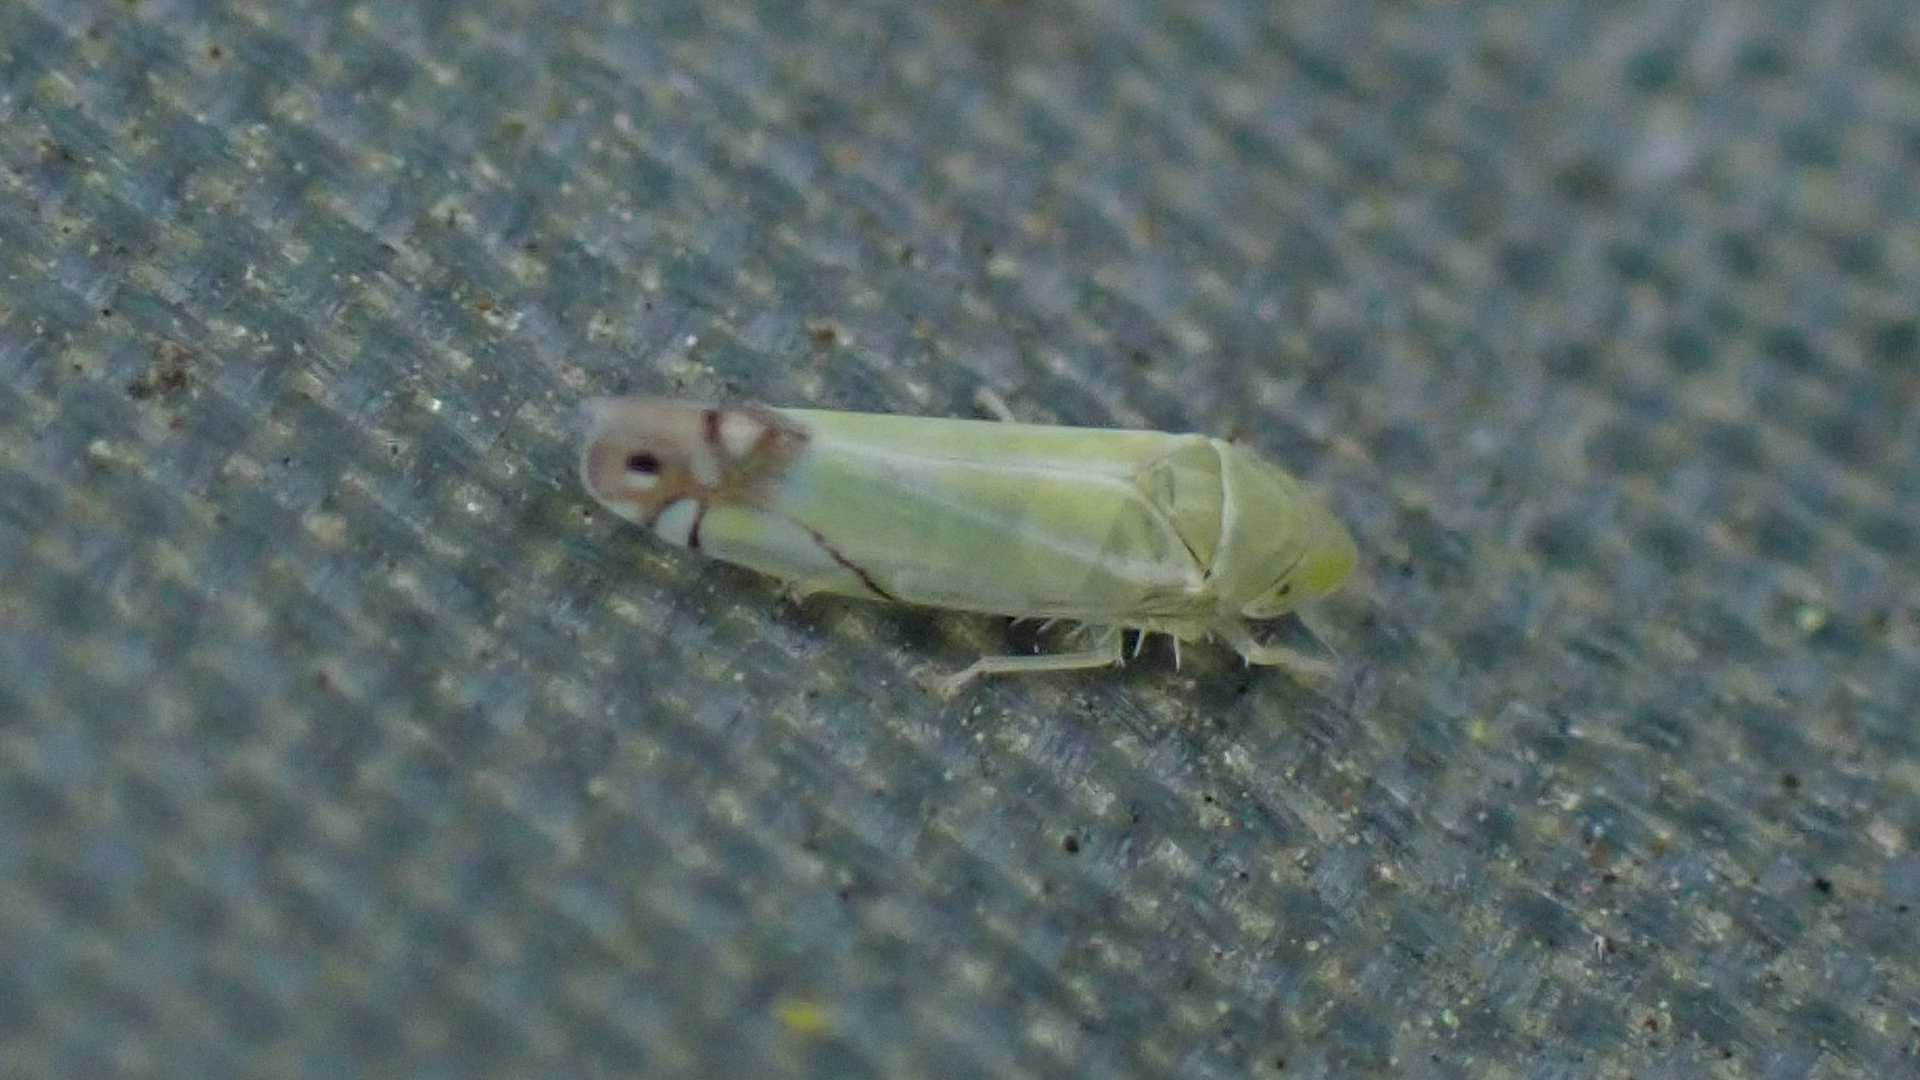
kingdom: Animalia
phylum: Arthropoda
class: Insecta
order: Hemiptera
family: Cicadellidae
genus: Zyginella
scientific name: Zyginella pulchra
